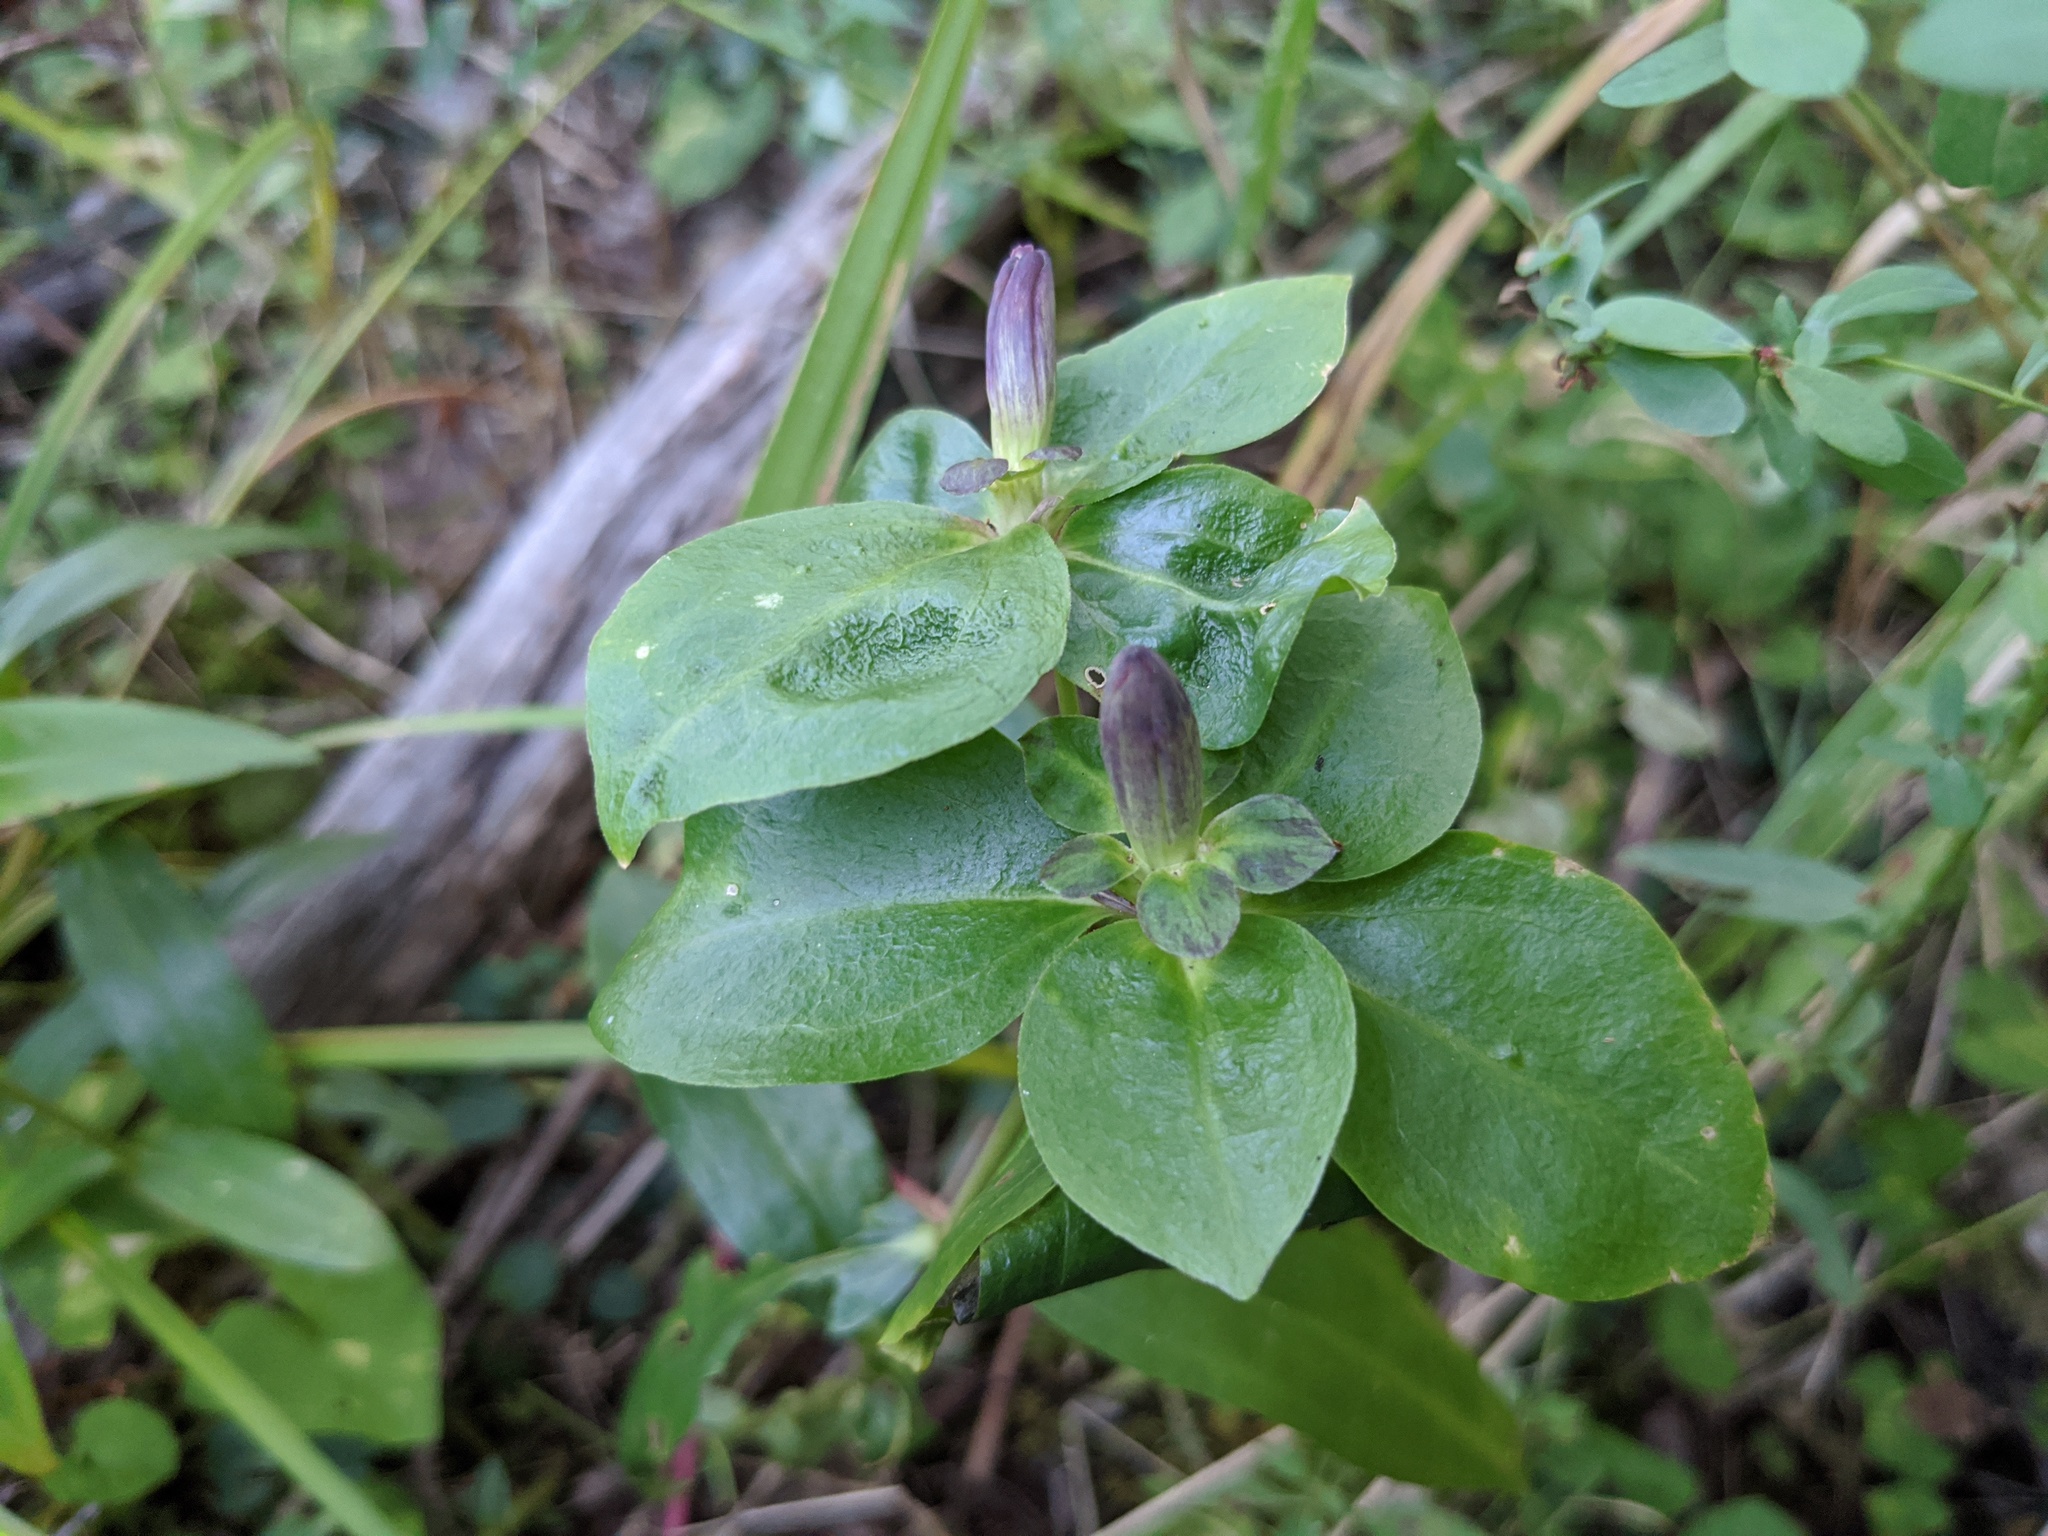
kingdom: Plantae
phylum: Tracheophyta
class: Magnoliopsida
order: Gentianales
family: Gentianaceae
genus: Gentiana
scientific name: Gentiana clausa
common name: Blind gentian
